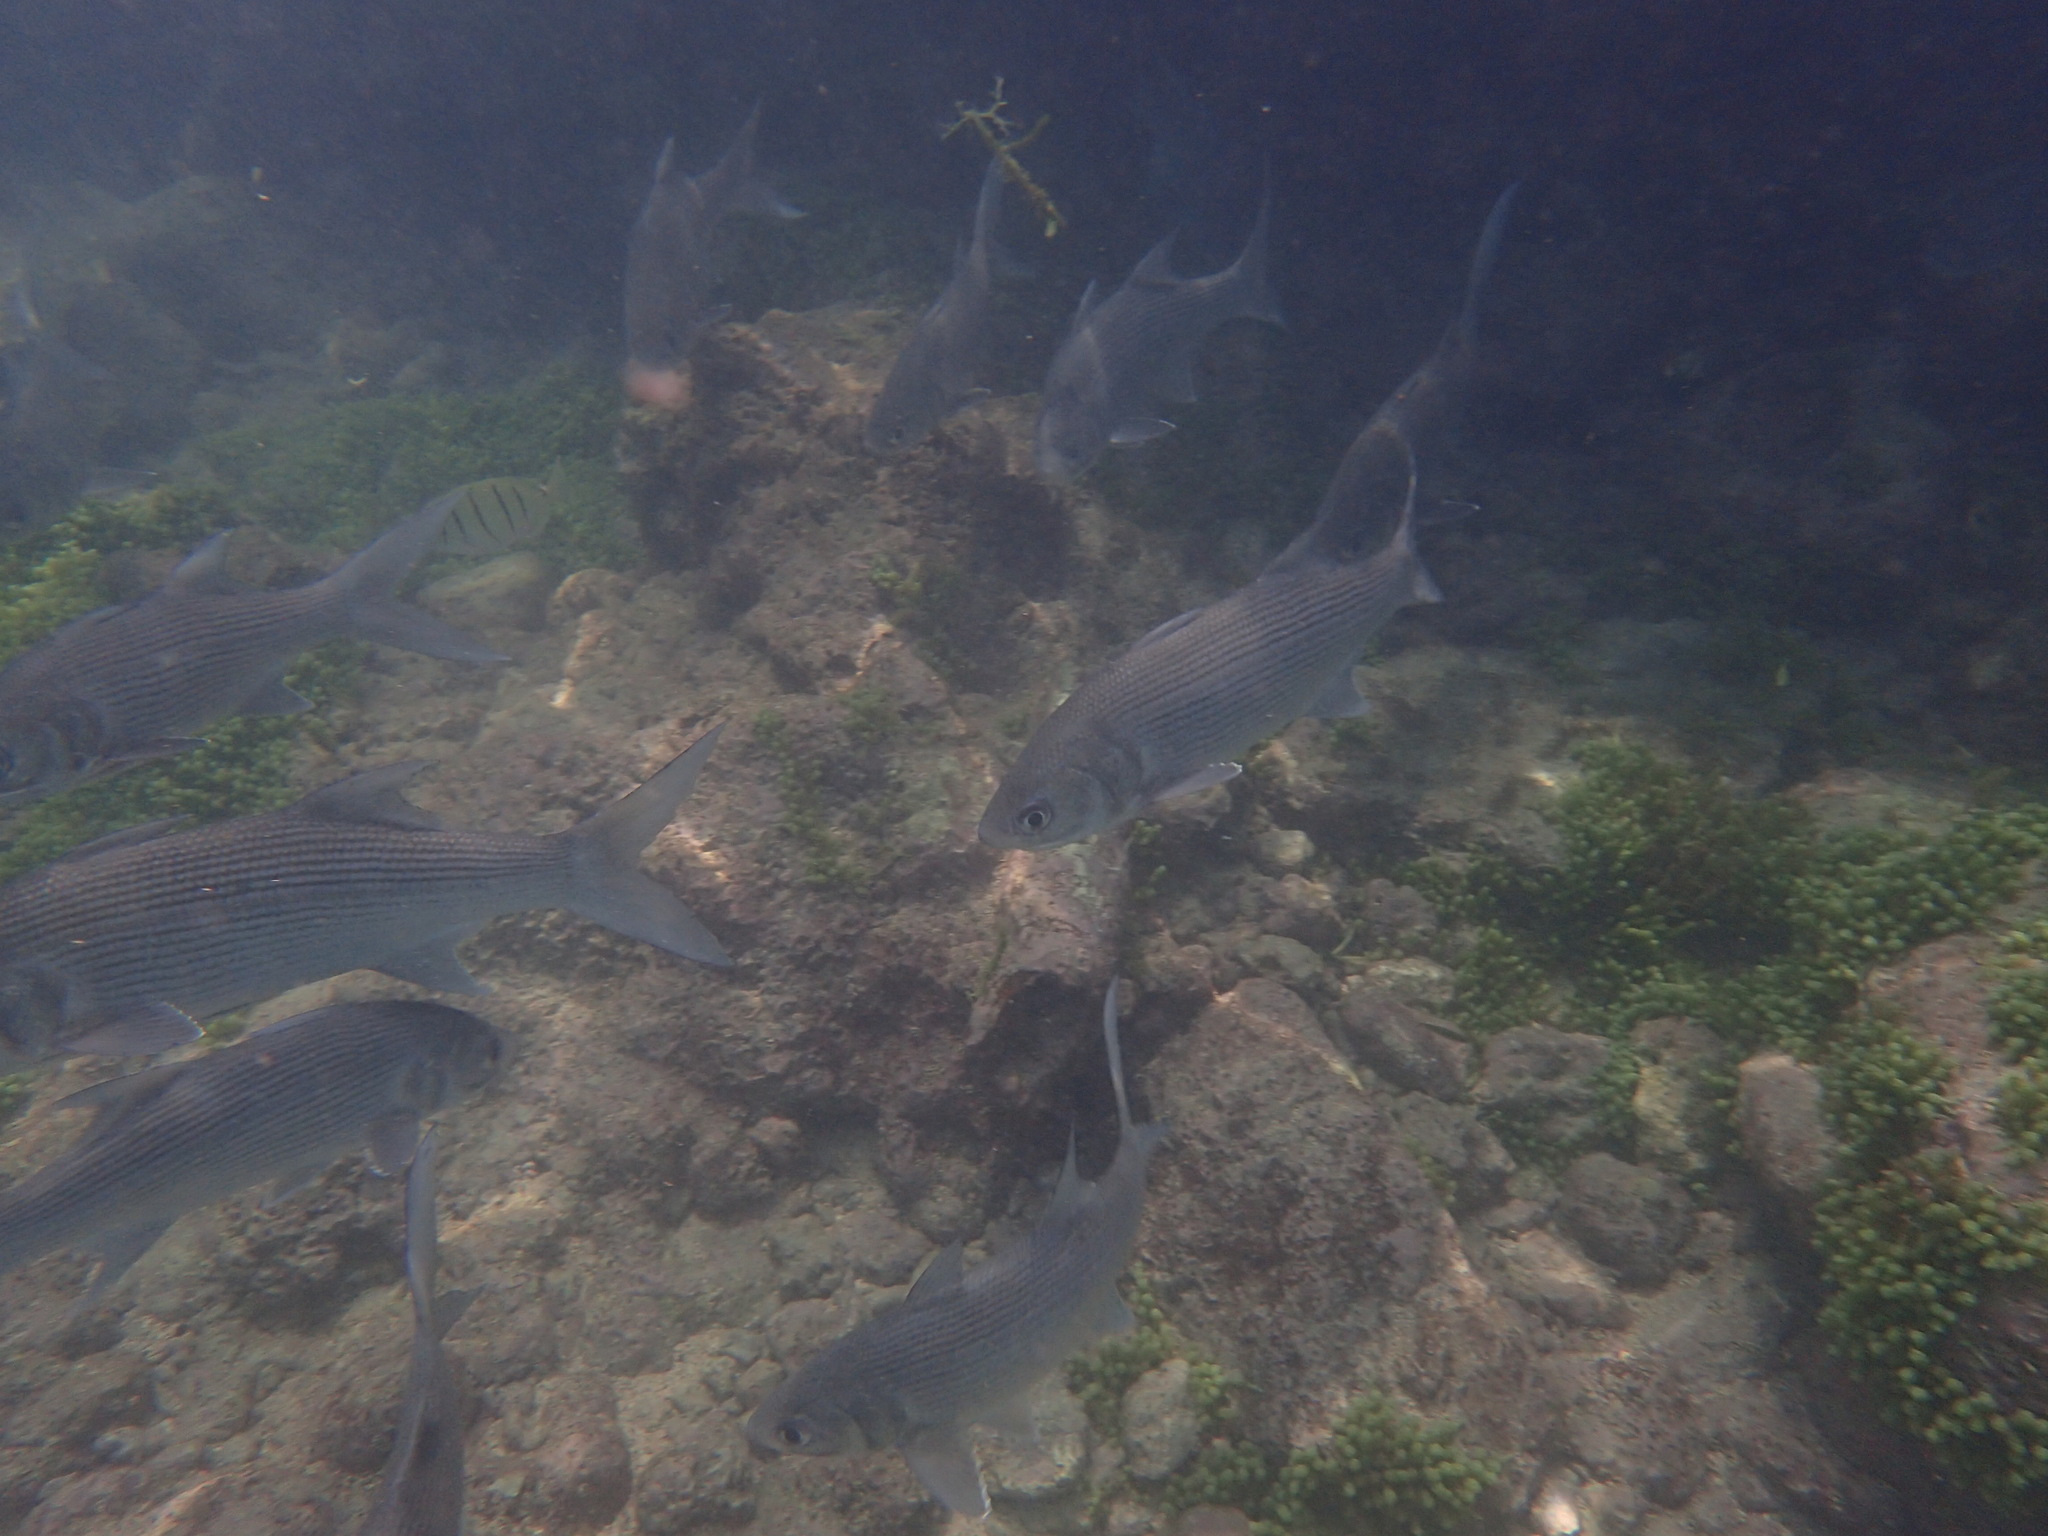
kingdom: Animalia
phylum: Chordata
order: Perciformes
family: Polynemidae
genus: Polydactylus
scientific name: Polydactylus sexfilis
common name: Six-fingered threadfin
